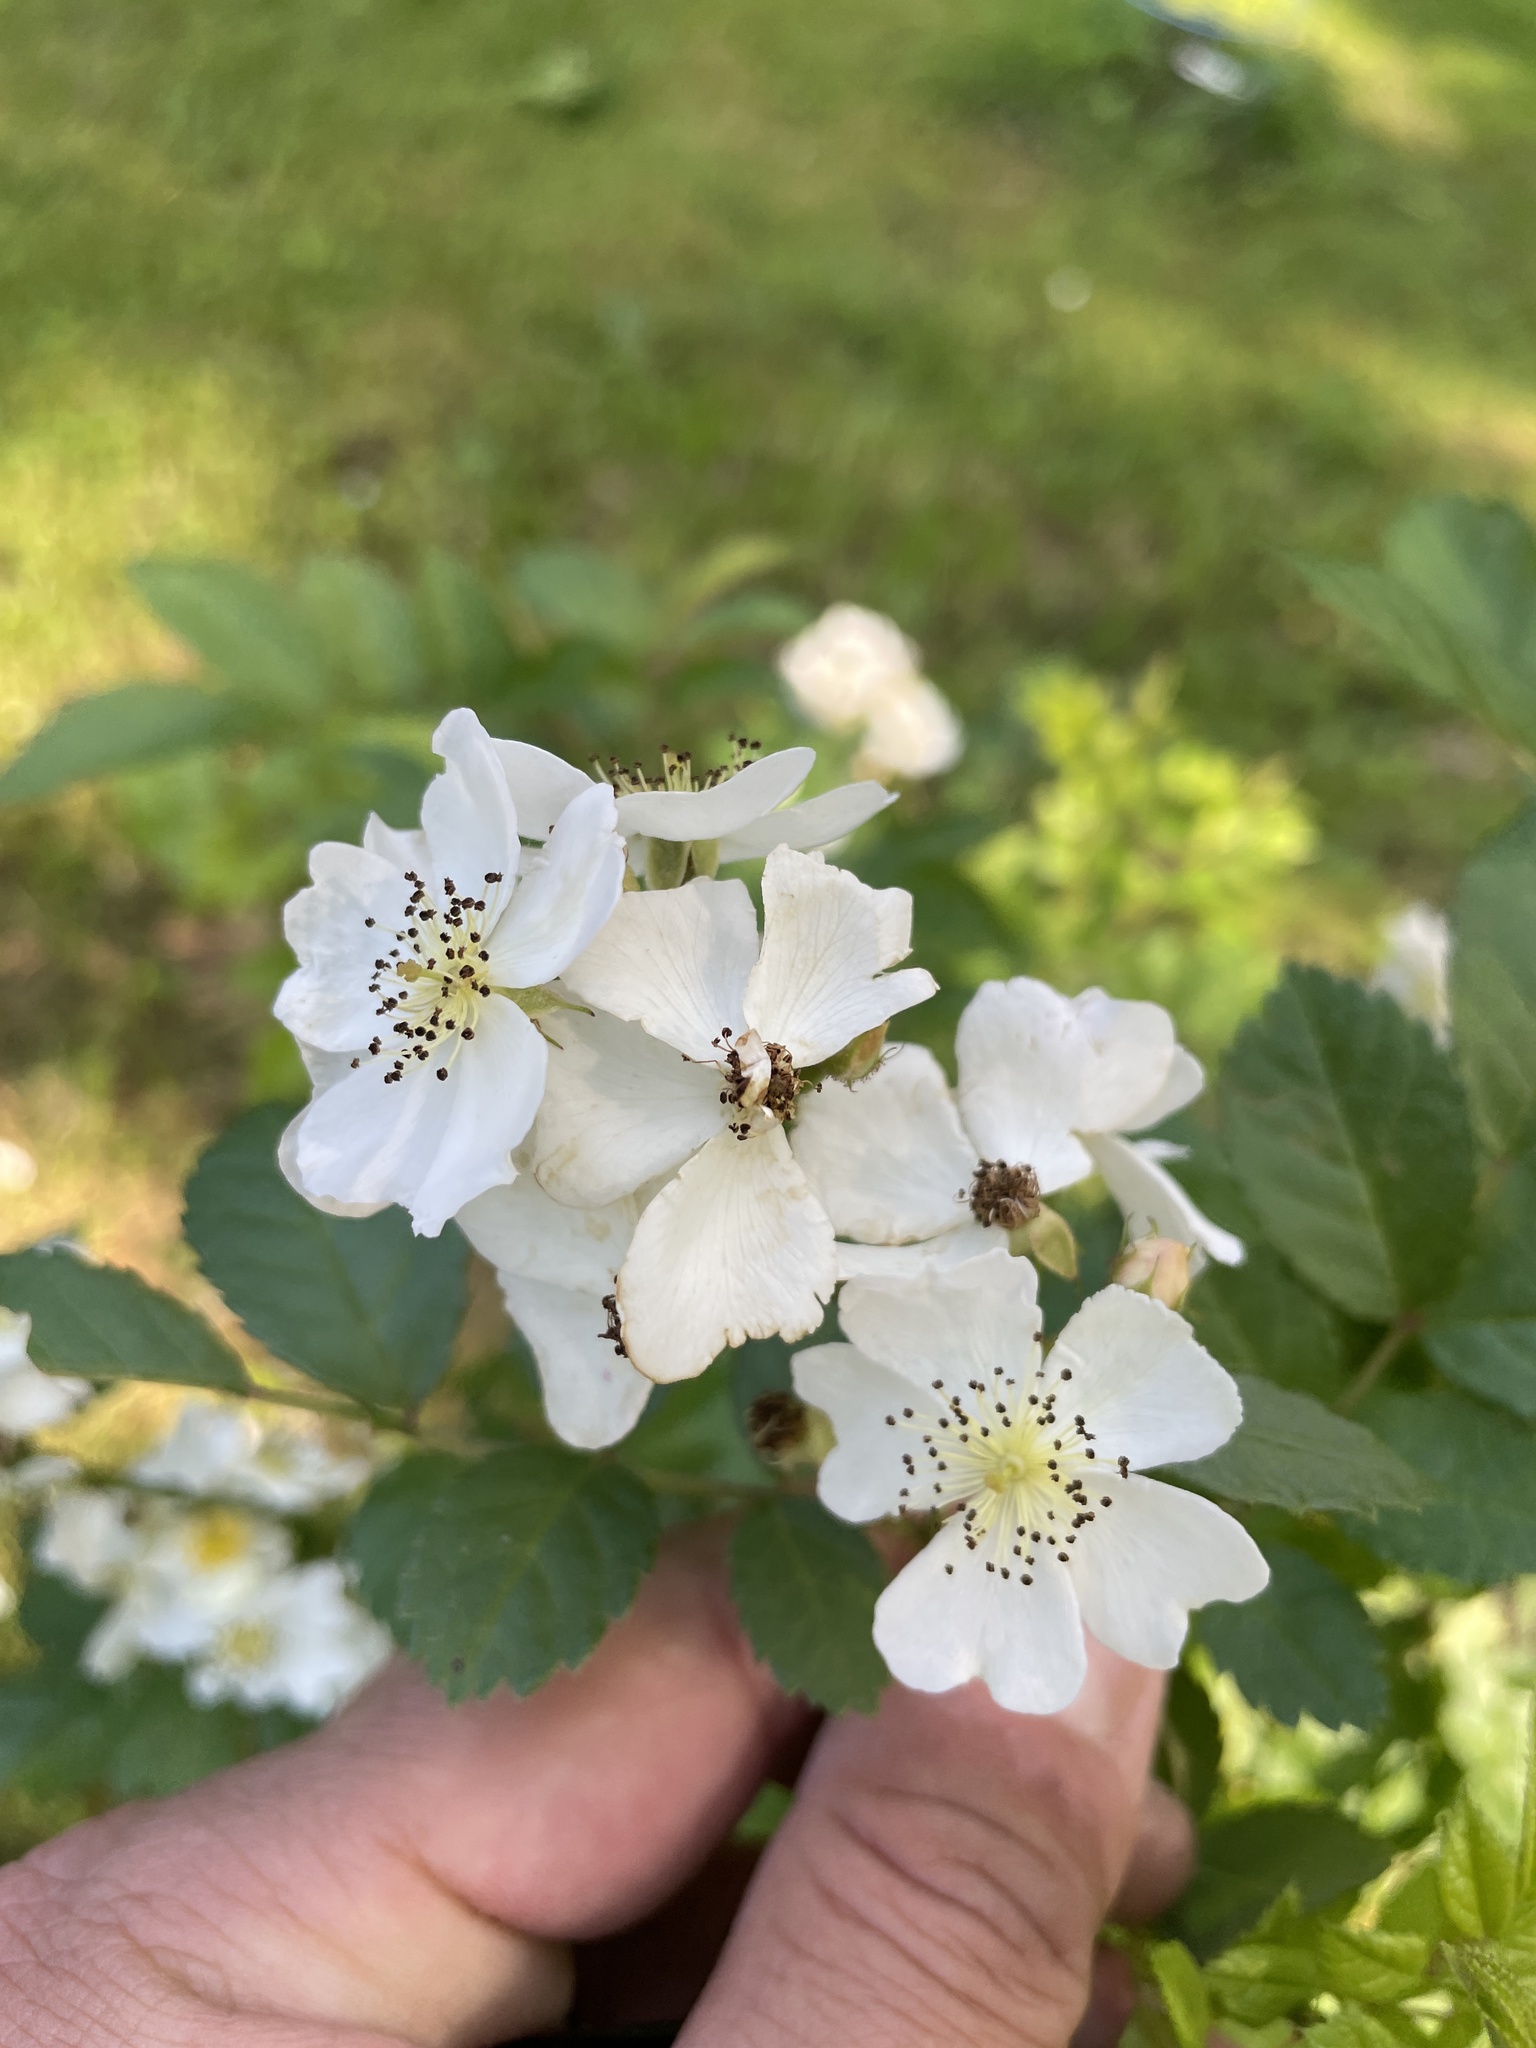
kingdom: Plantae
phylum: Tracheophyta
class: Magnoliopsida
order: Rosales
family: Rosaceae
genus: Rosa
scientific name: Rosa multiflora
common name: Multiflora rose
